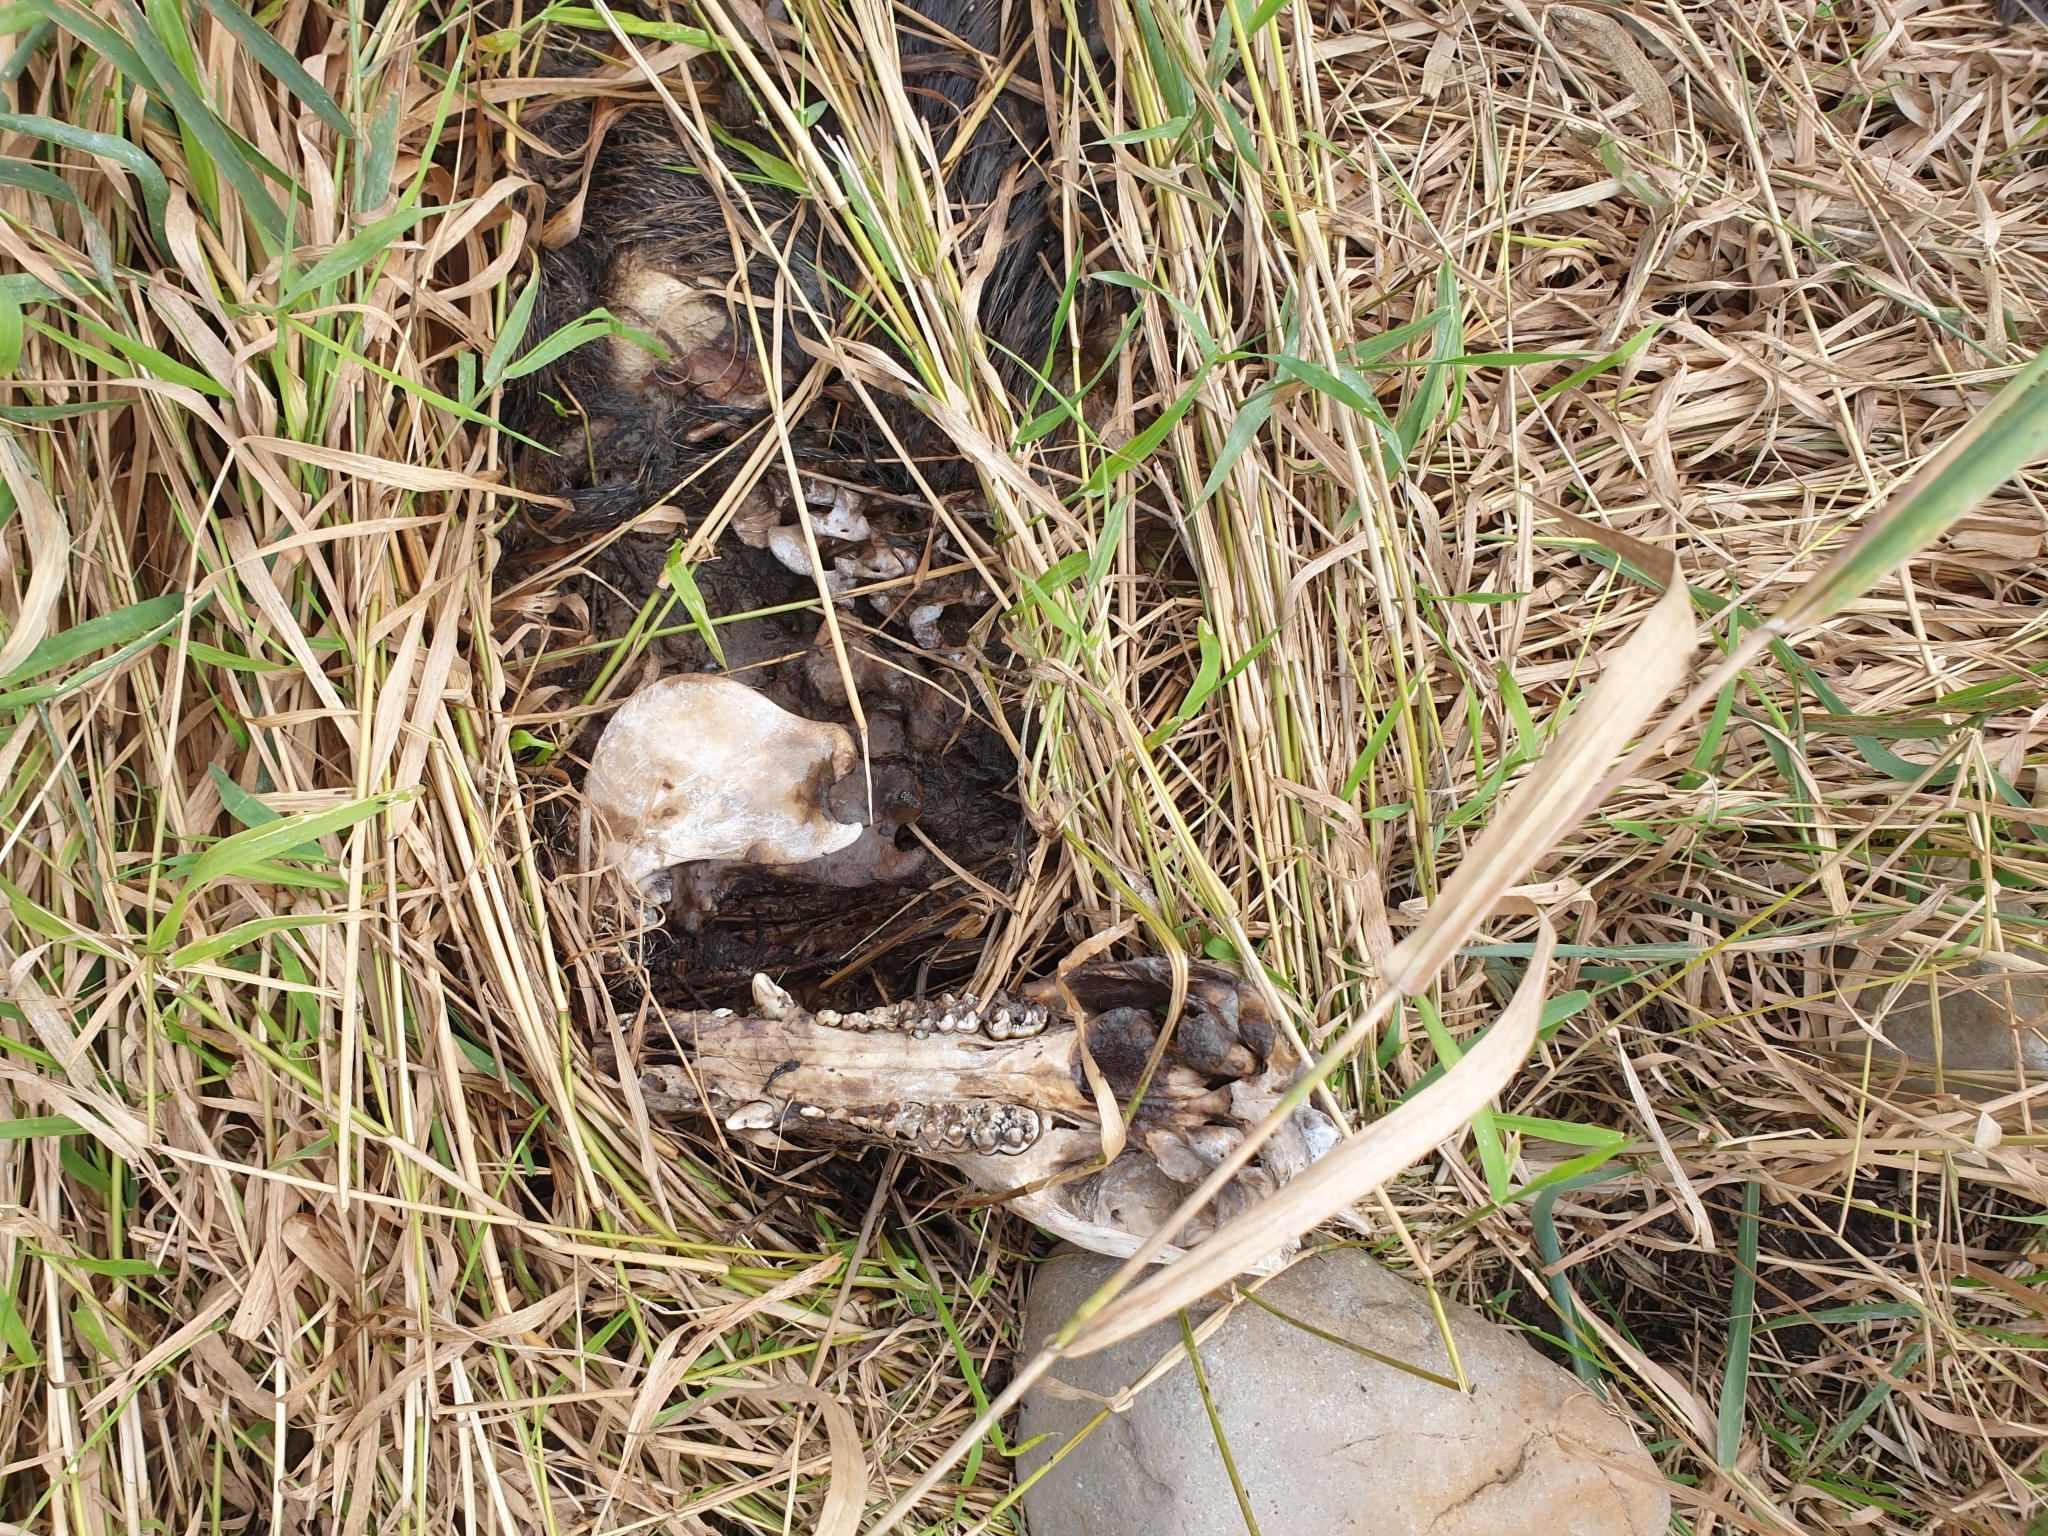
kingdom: Animalia
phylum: Chordata
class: Mammalia
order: Artiodactyla
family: Suidae
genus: Sus
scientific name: Sus scrofa
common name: Wild boar
